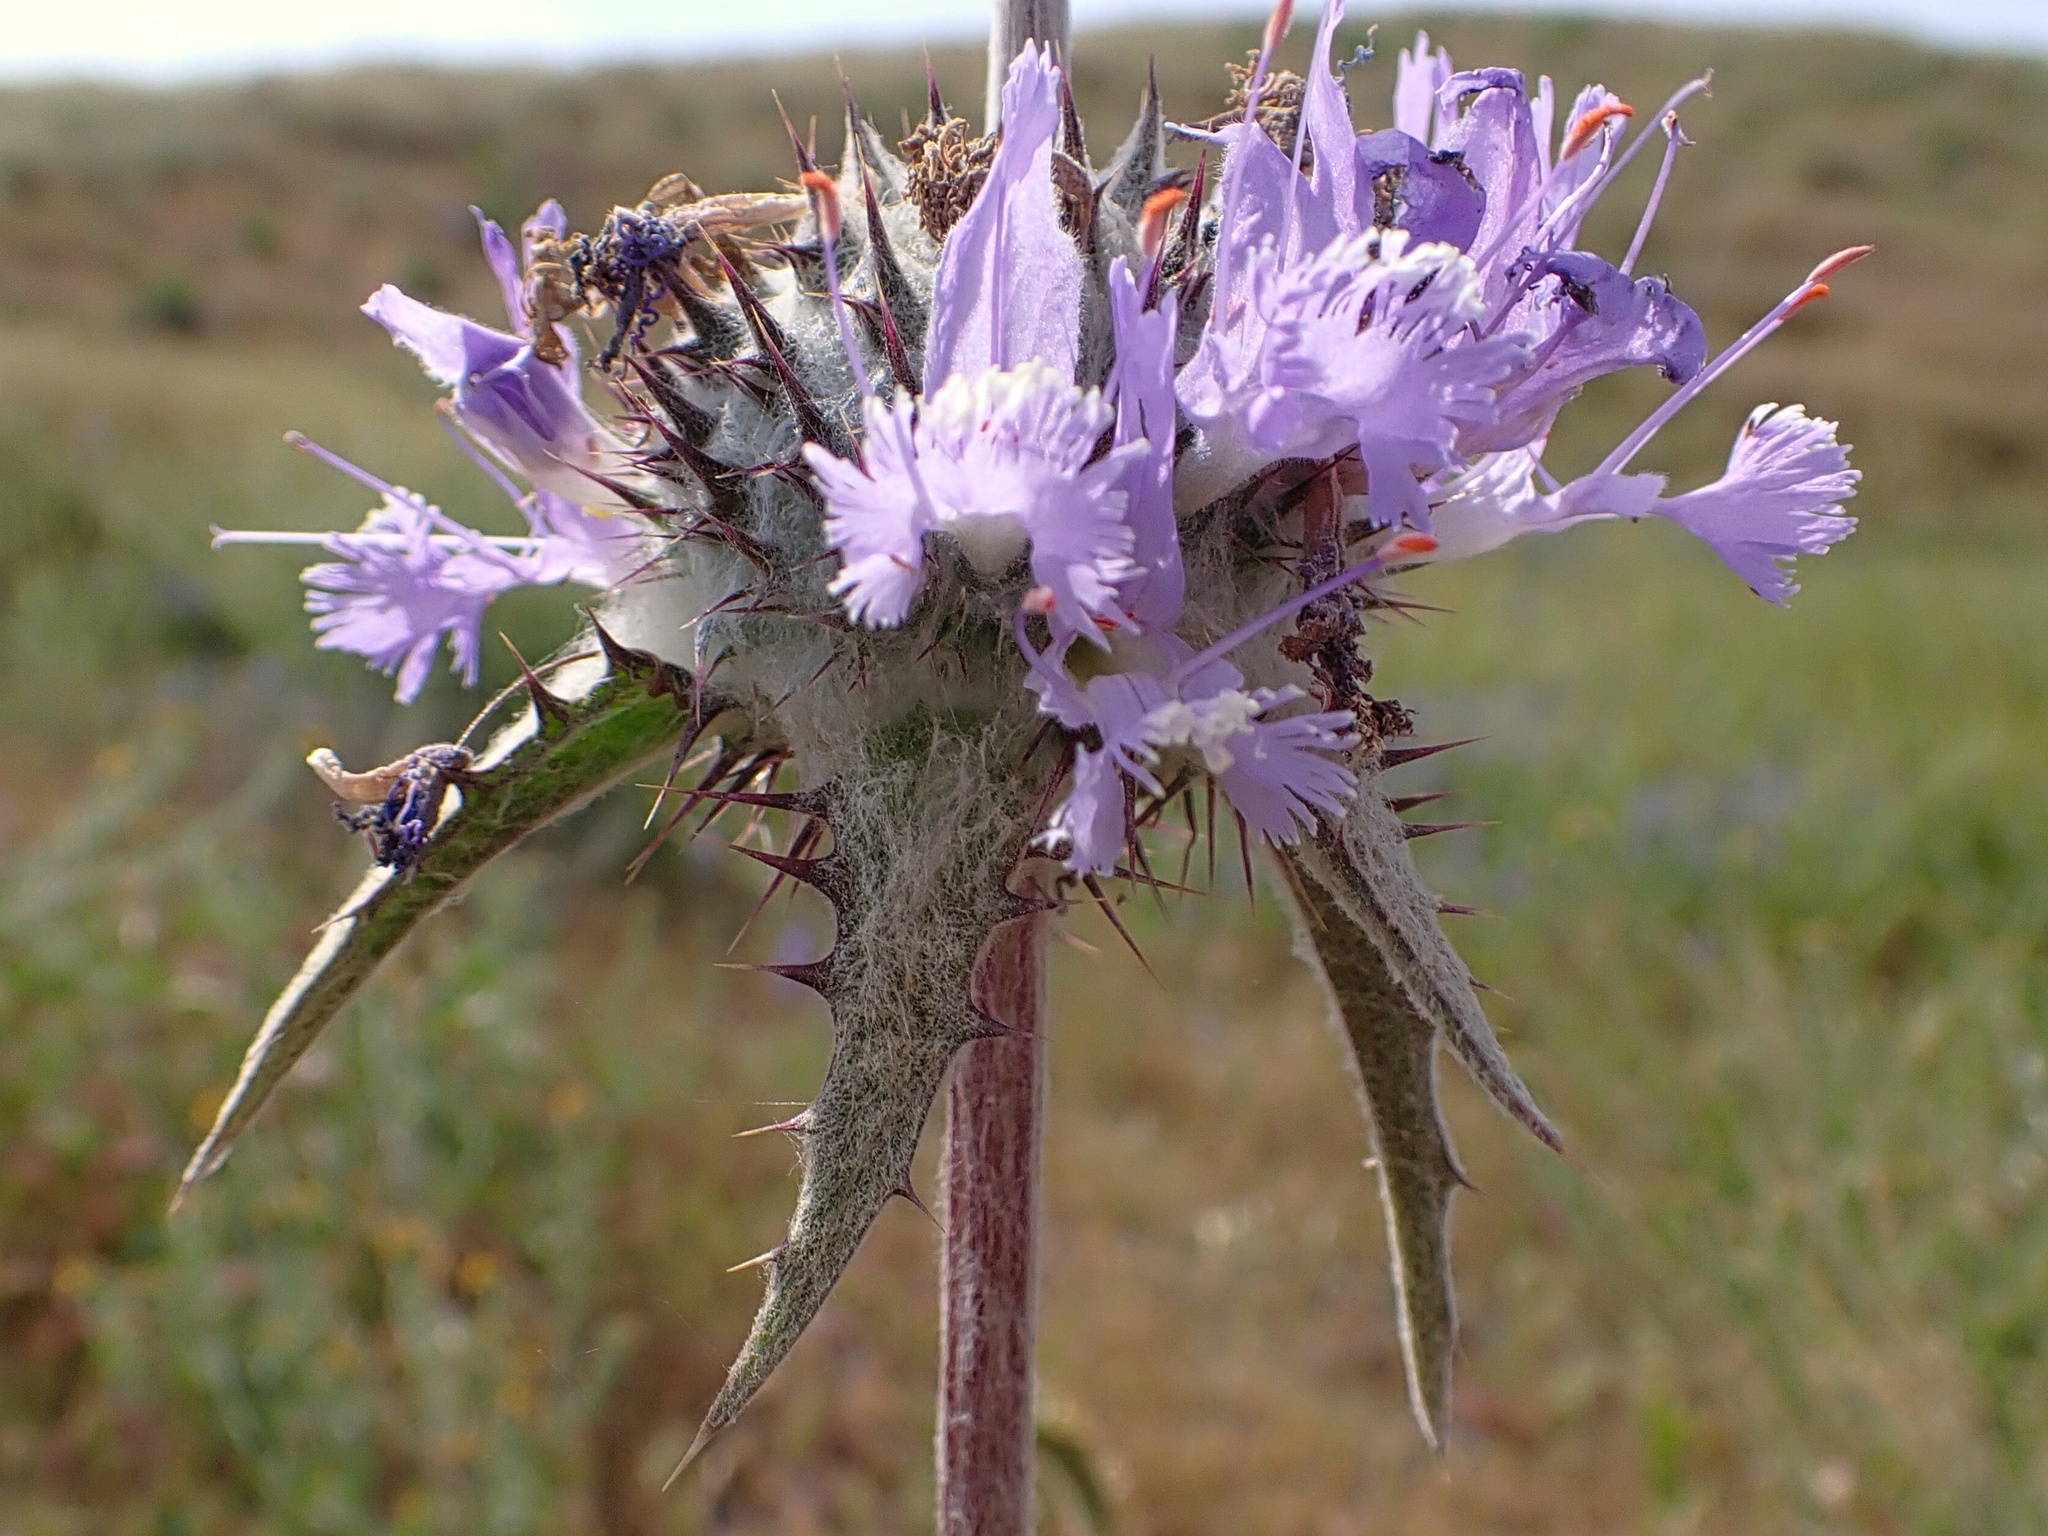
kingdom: Plantae
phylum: Tracheophyta
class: Magnoliopsida
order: Lamiales
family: Lamiaceae
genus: Salvia
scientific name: Salvia carduacea
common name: Thistle sage
